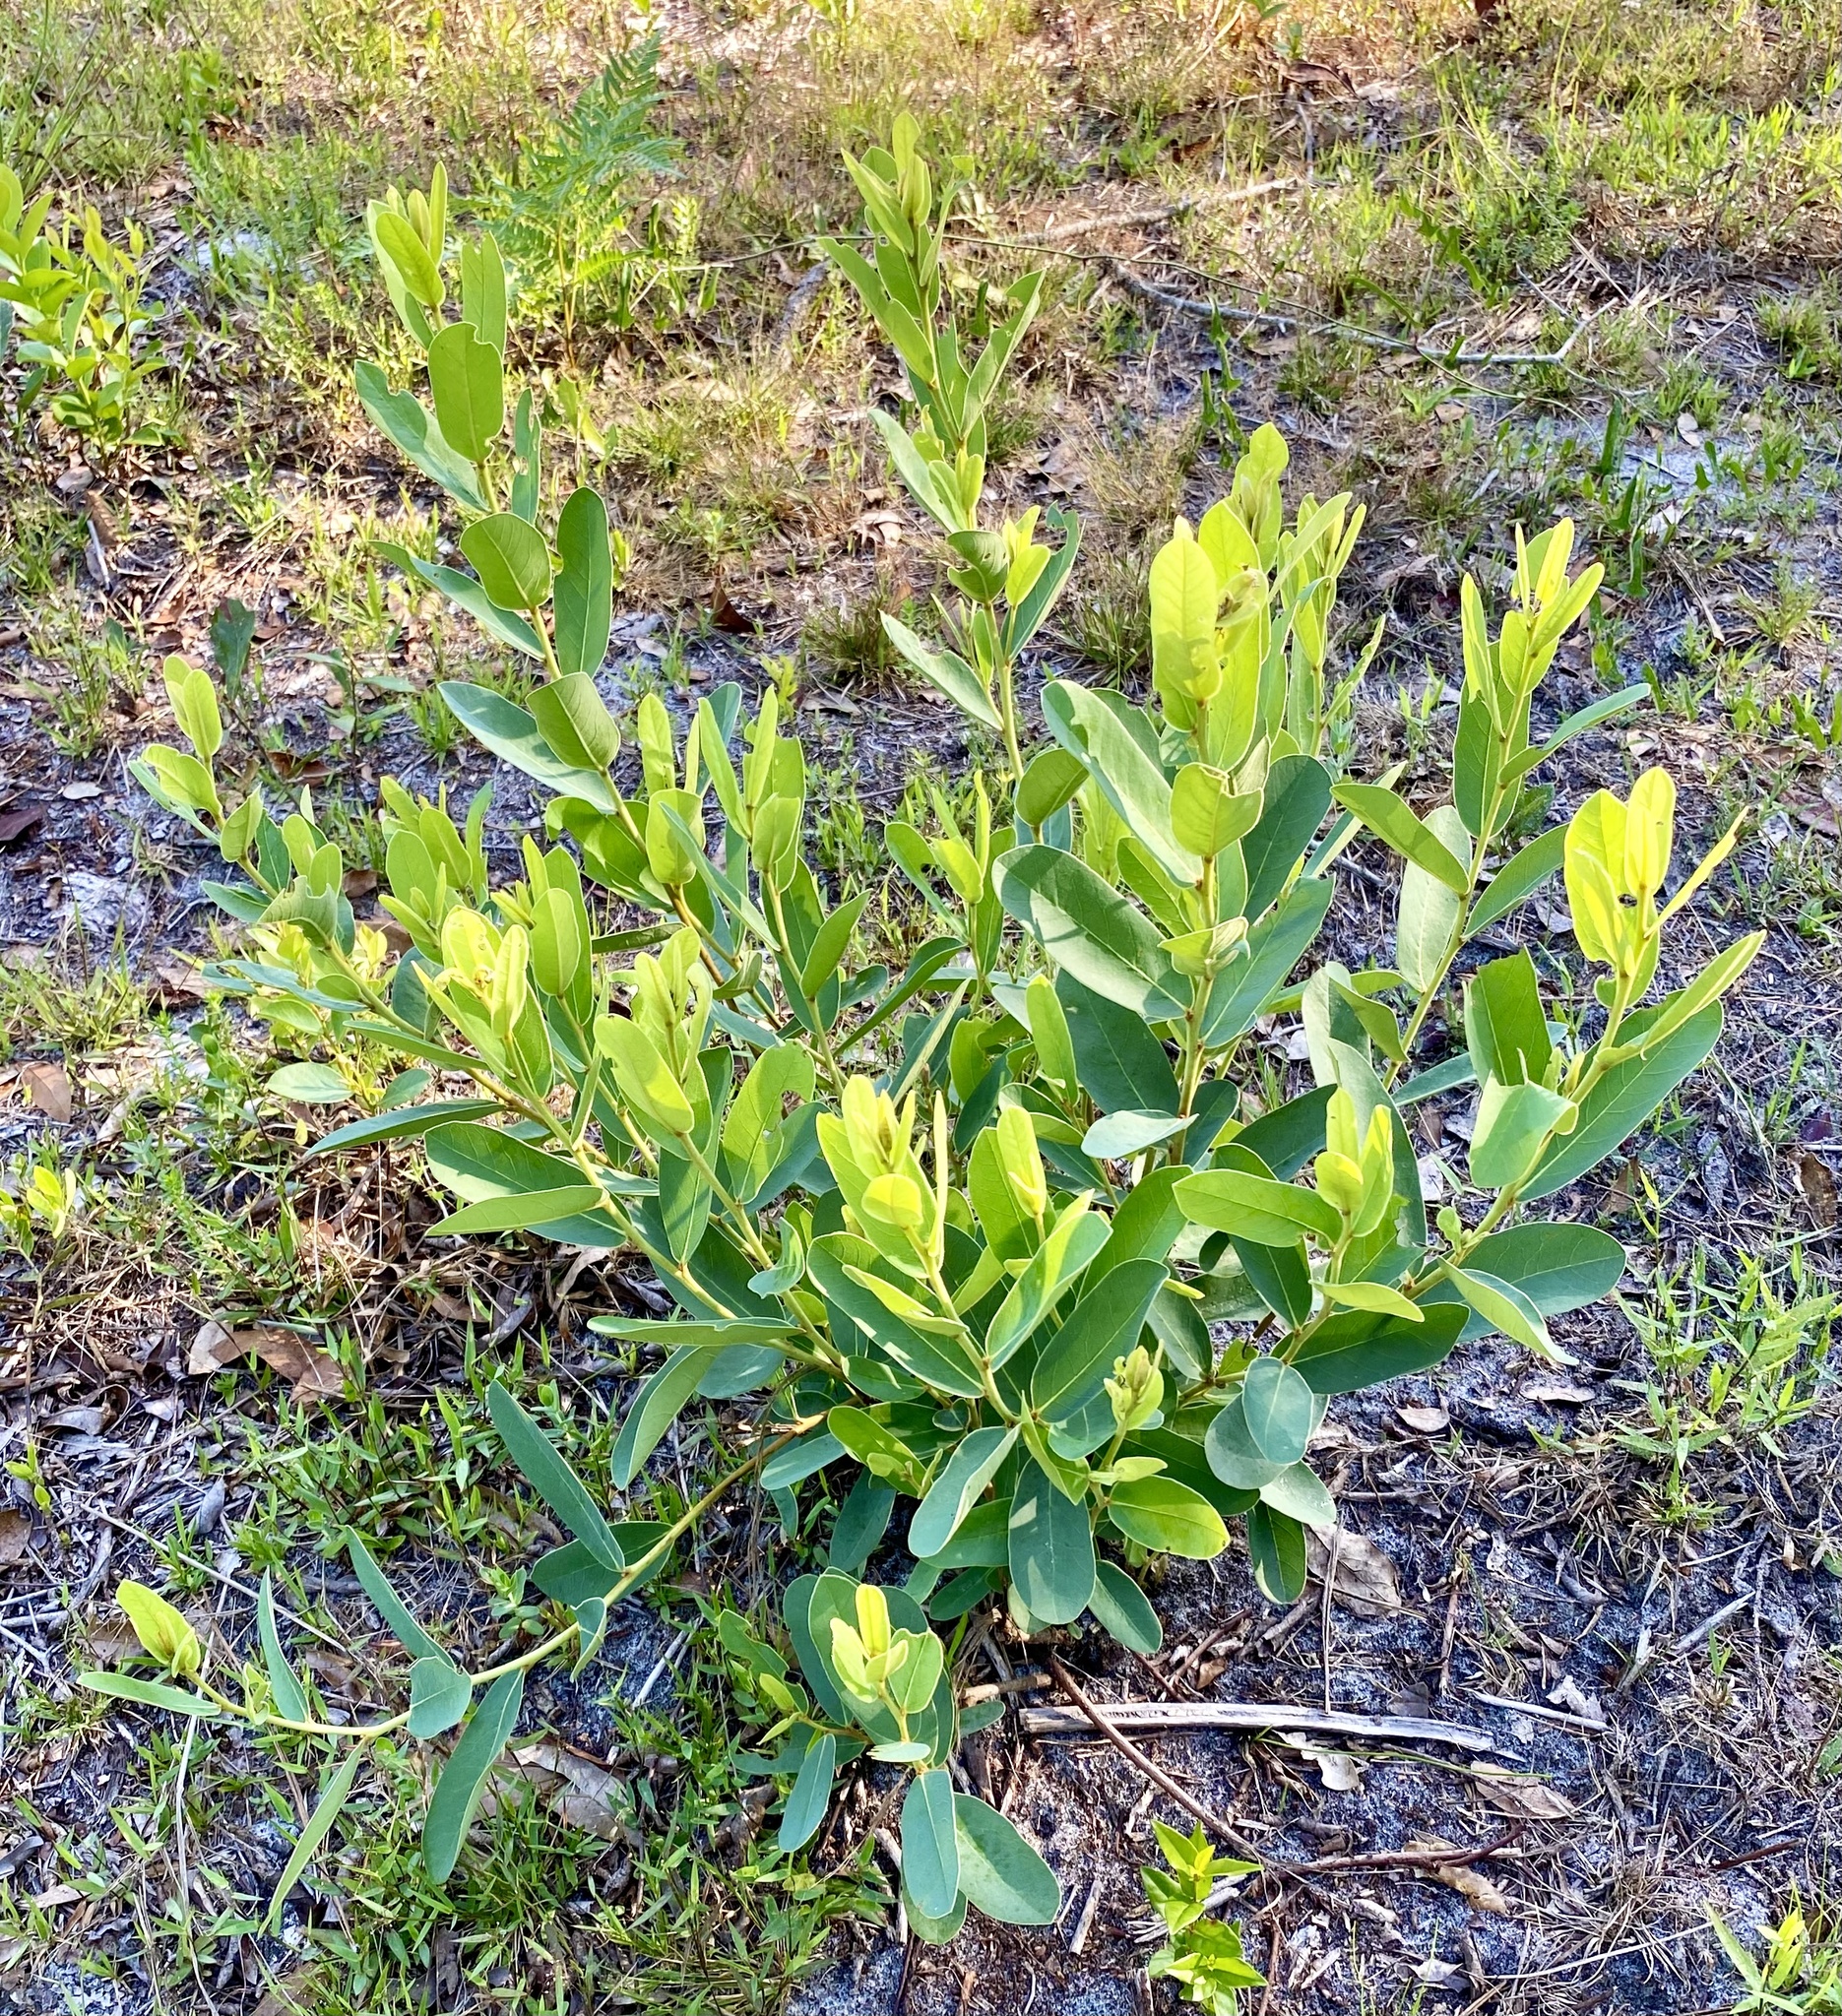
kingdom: Plantae
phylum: Tracheophyta
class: Magnoliopsida
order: Magnoliales
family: Annonaceae
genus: Asimina
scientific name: Asimina reticulata
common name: Flag pawpaw
